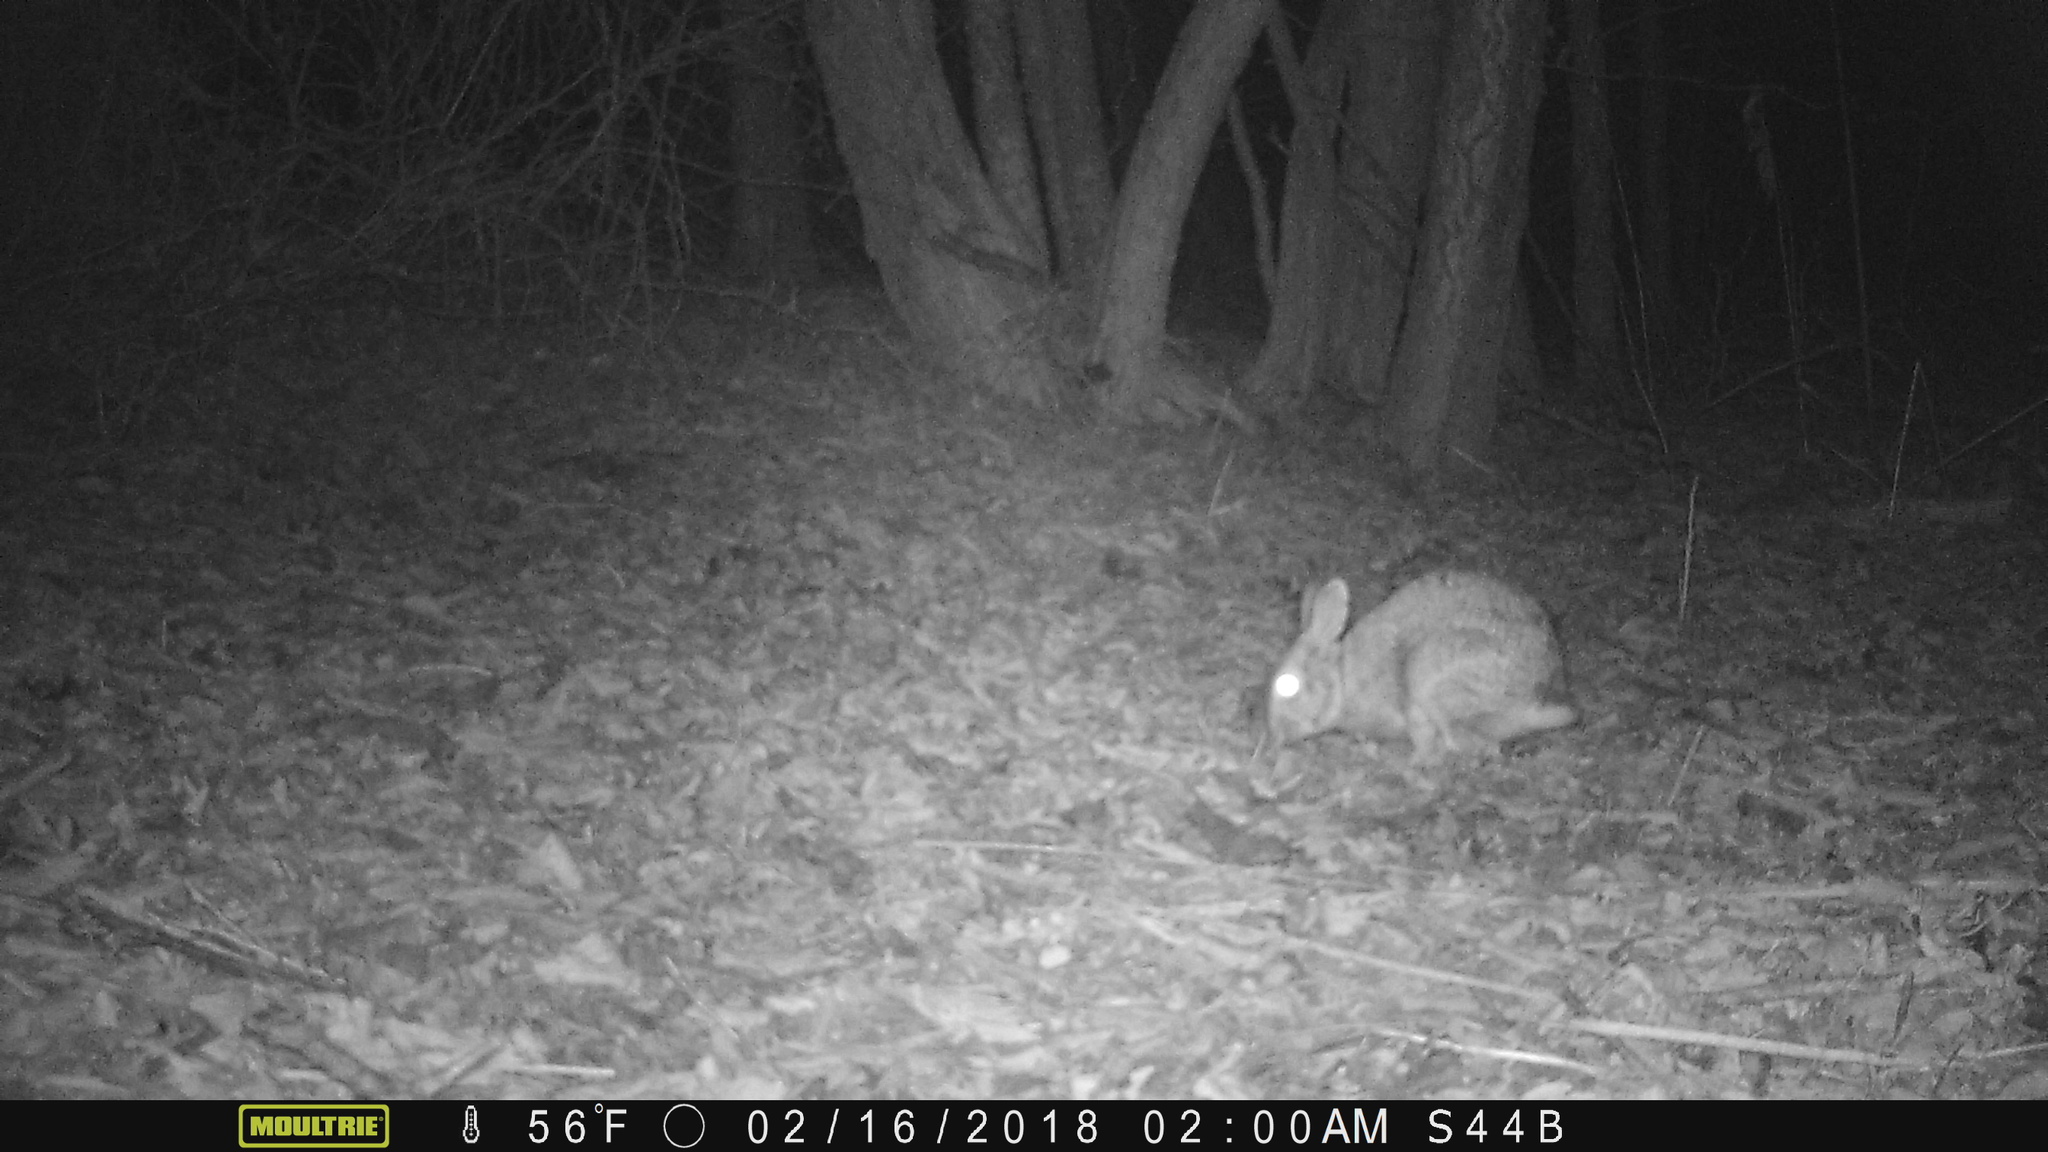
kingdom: Animalia
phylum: Chordata
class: Mammalia
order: Lagomorpha
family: Leporidae
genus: Sylvilagus
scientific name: Sylvilagus floridanus
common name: Eastern cottontail
